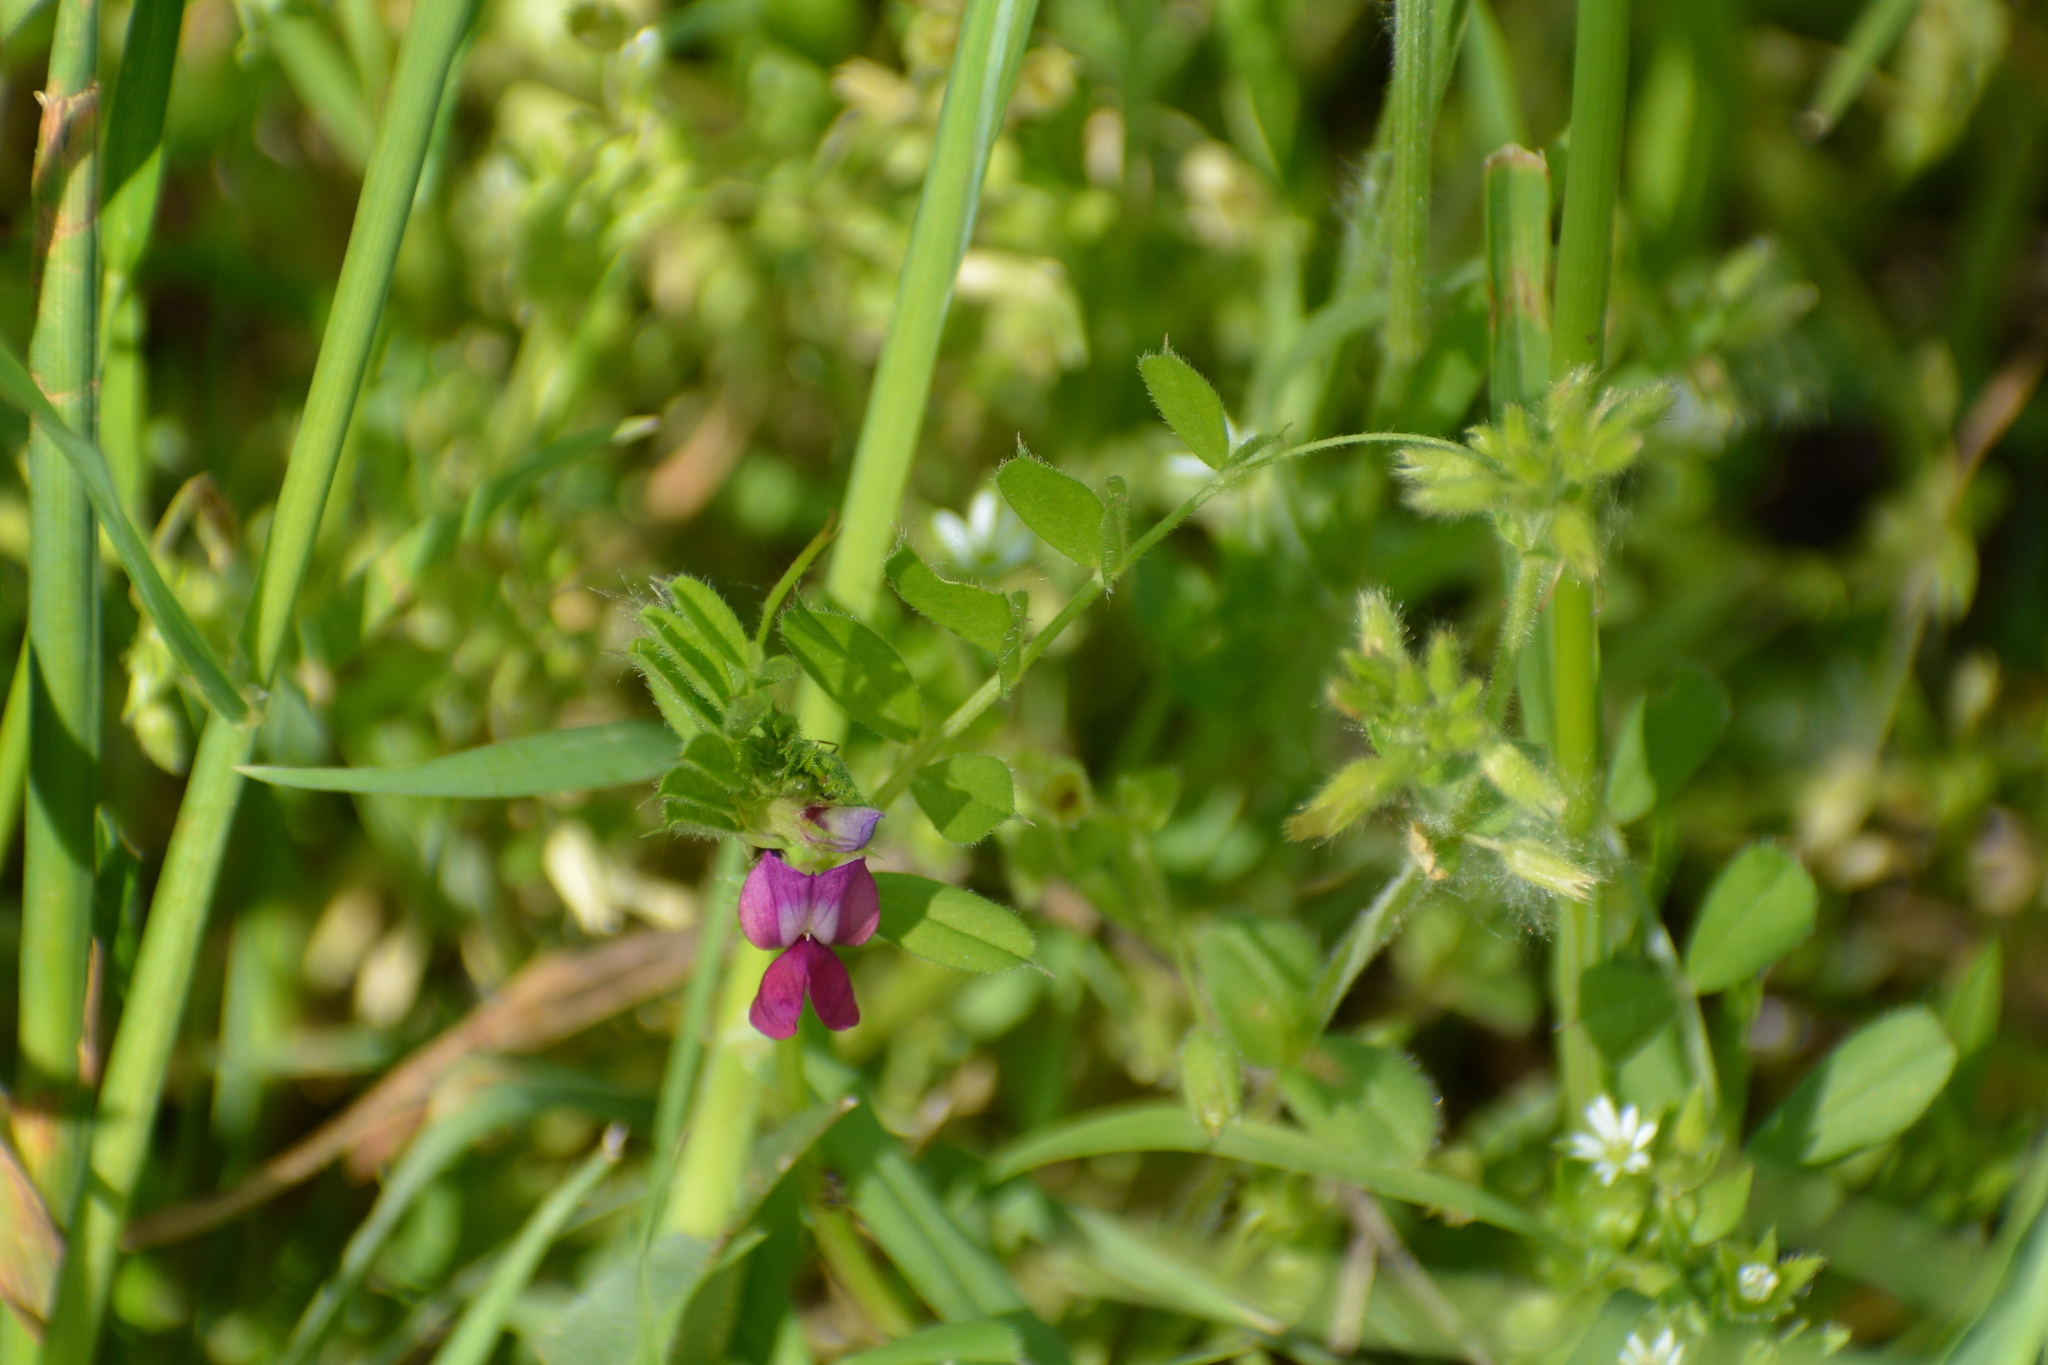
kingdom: Plantae
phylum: Tracheophyta
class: Magnoliopsida
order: Fabales
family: Fabaceae
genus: Vicia
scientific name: Vicia sativa
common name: Garden vetch
